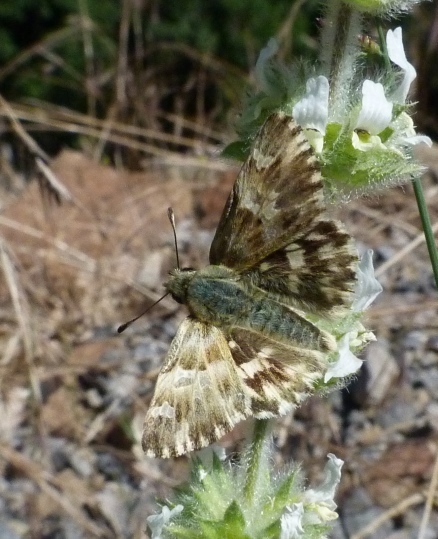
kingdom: Animalia
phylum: Arthropoda
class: Insecta
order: Lepidoptera
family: Hesperiidae
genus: Carcharodus
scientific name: Carcharodus lavatherae
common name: Marbled skipper
